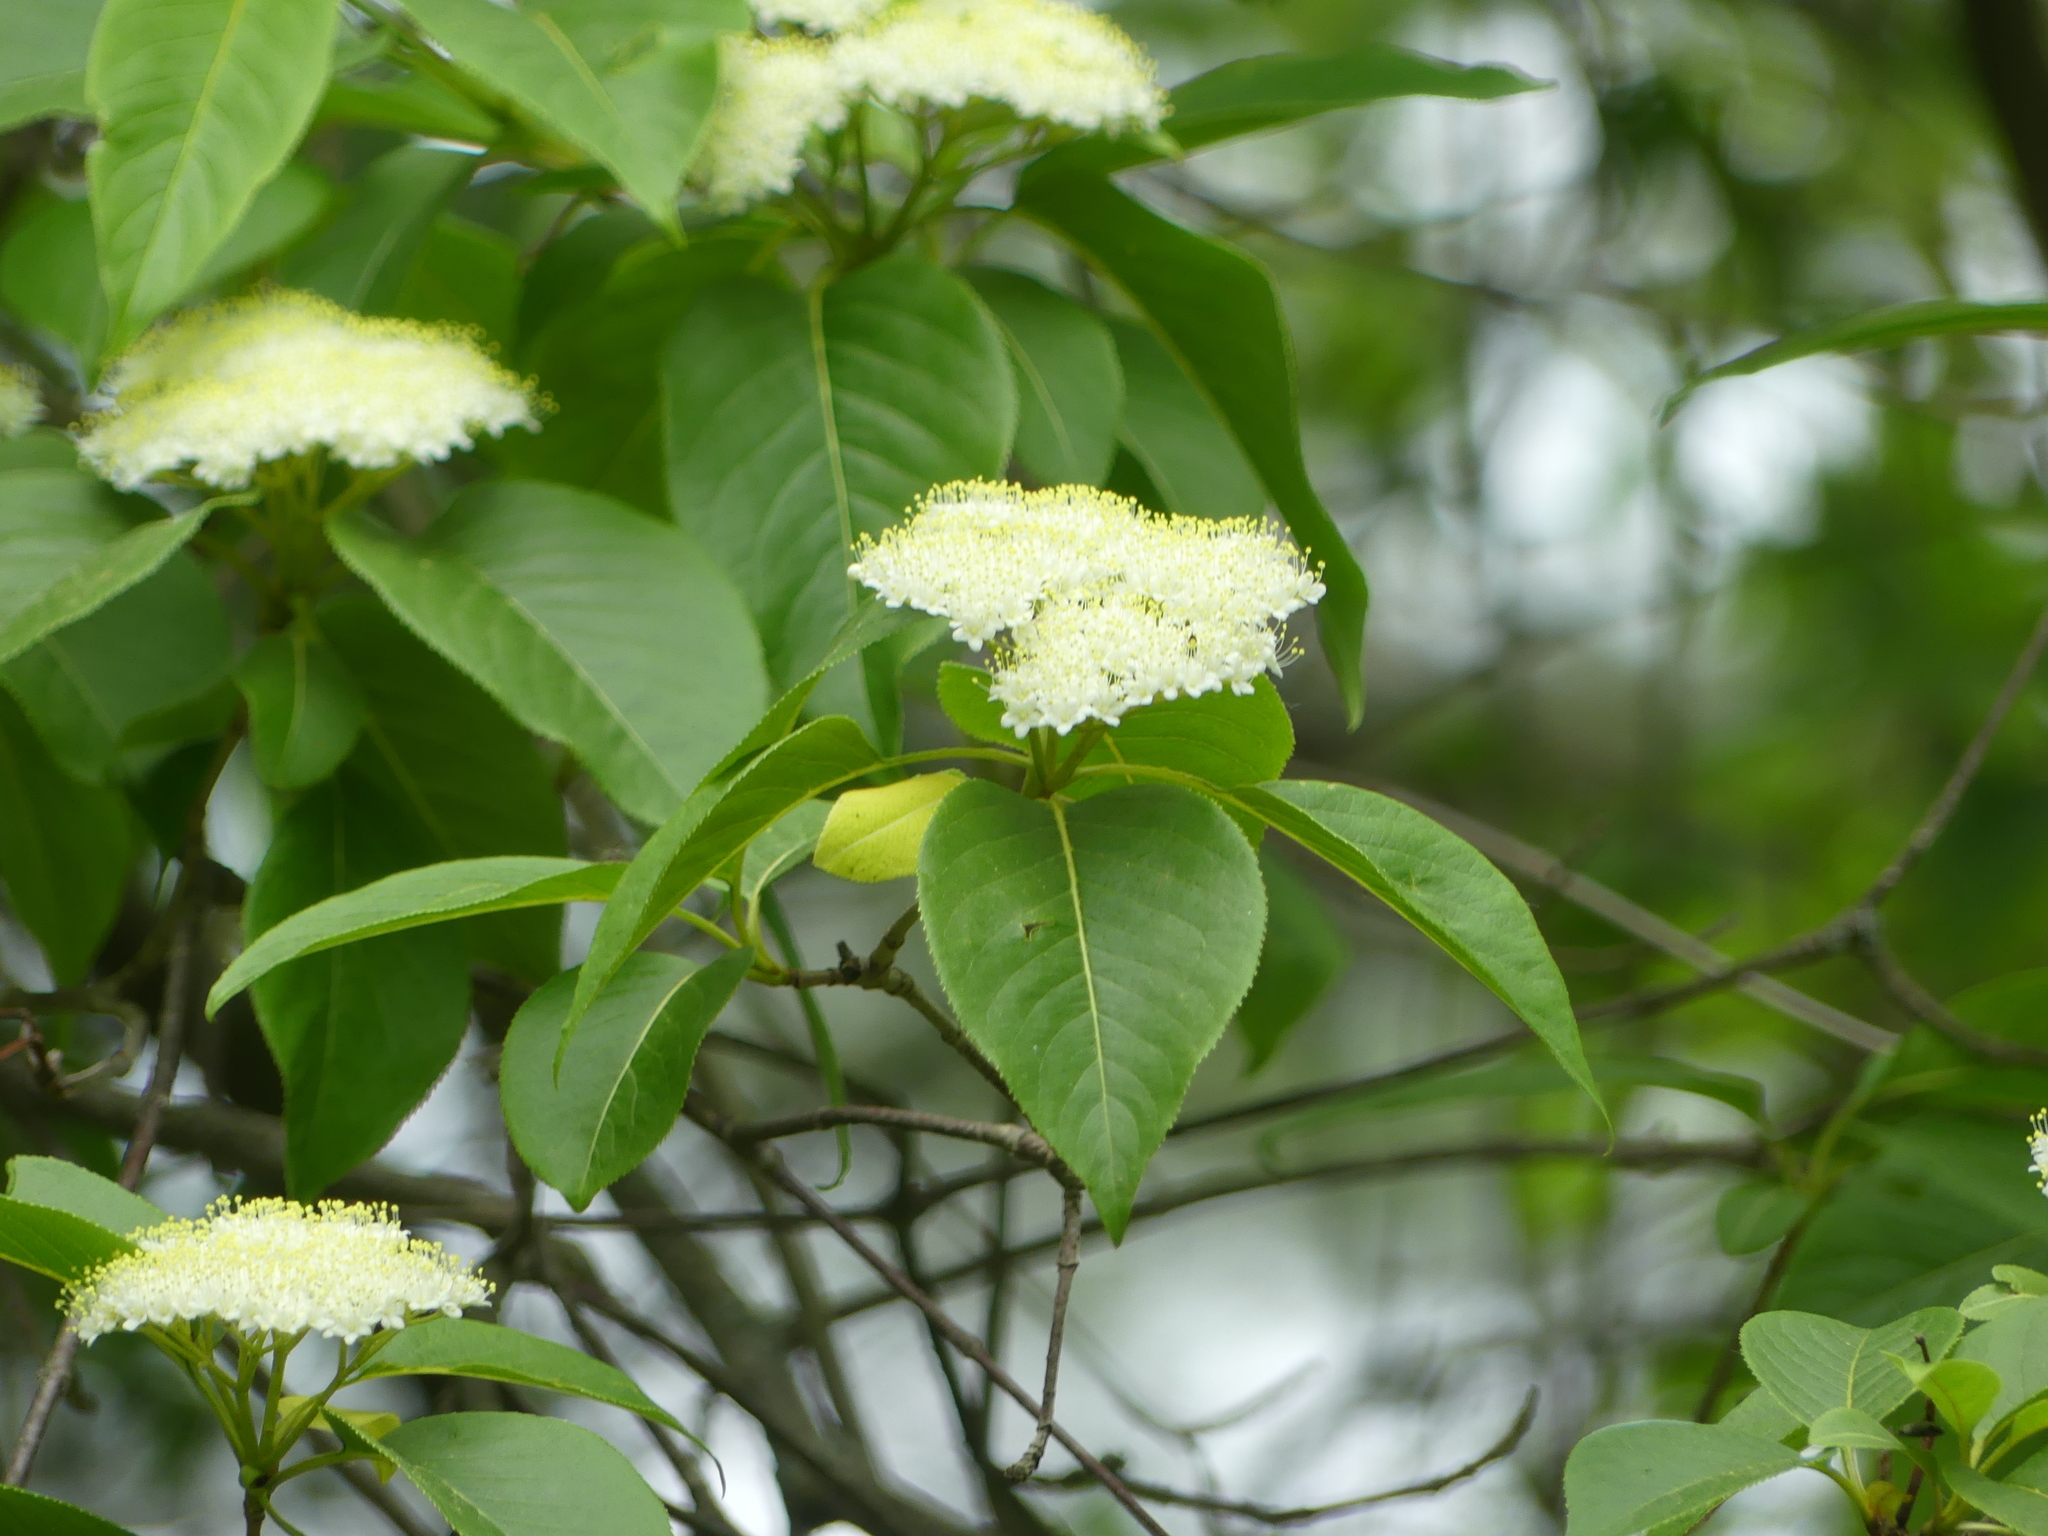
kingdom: Plantae
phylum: Tracheophyta
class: Magnoliopsida
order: Dipsacales
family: Viburnaceae
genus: Viburnum
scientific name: Viburnum lentago
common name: Black haw
